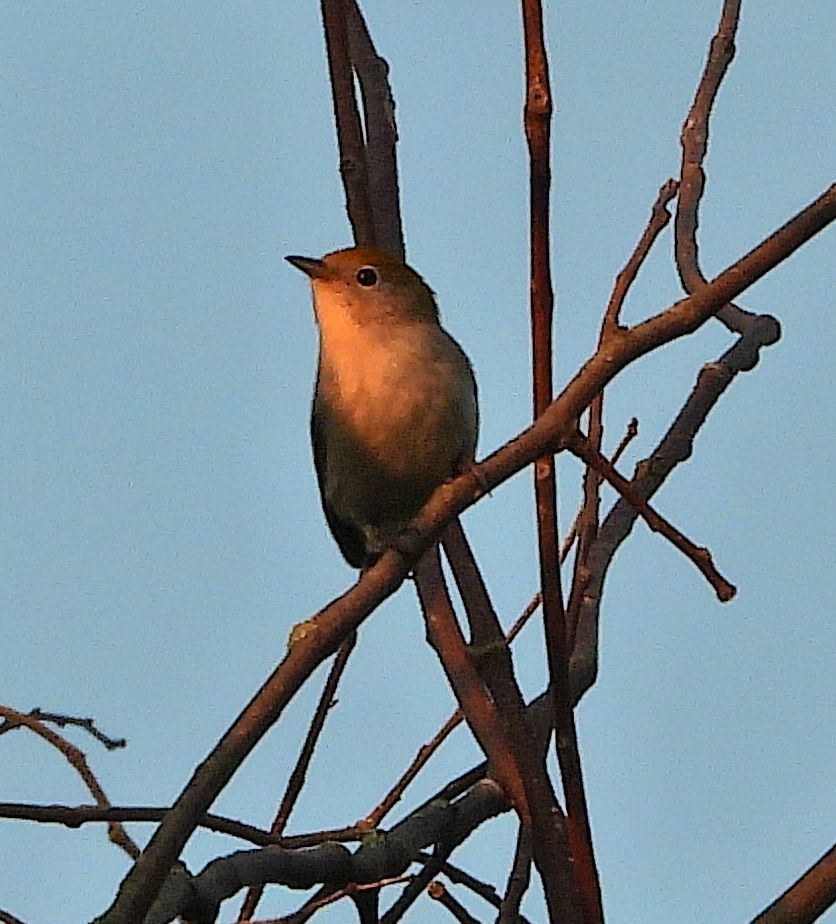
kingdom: Animalia
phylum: Chordata
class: Aves
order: Passeriformes
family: Parulidae
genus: Setophaga
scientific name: Setophaga pensylvanica
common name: Chestnut-sided warbler
